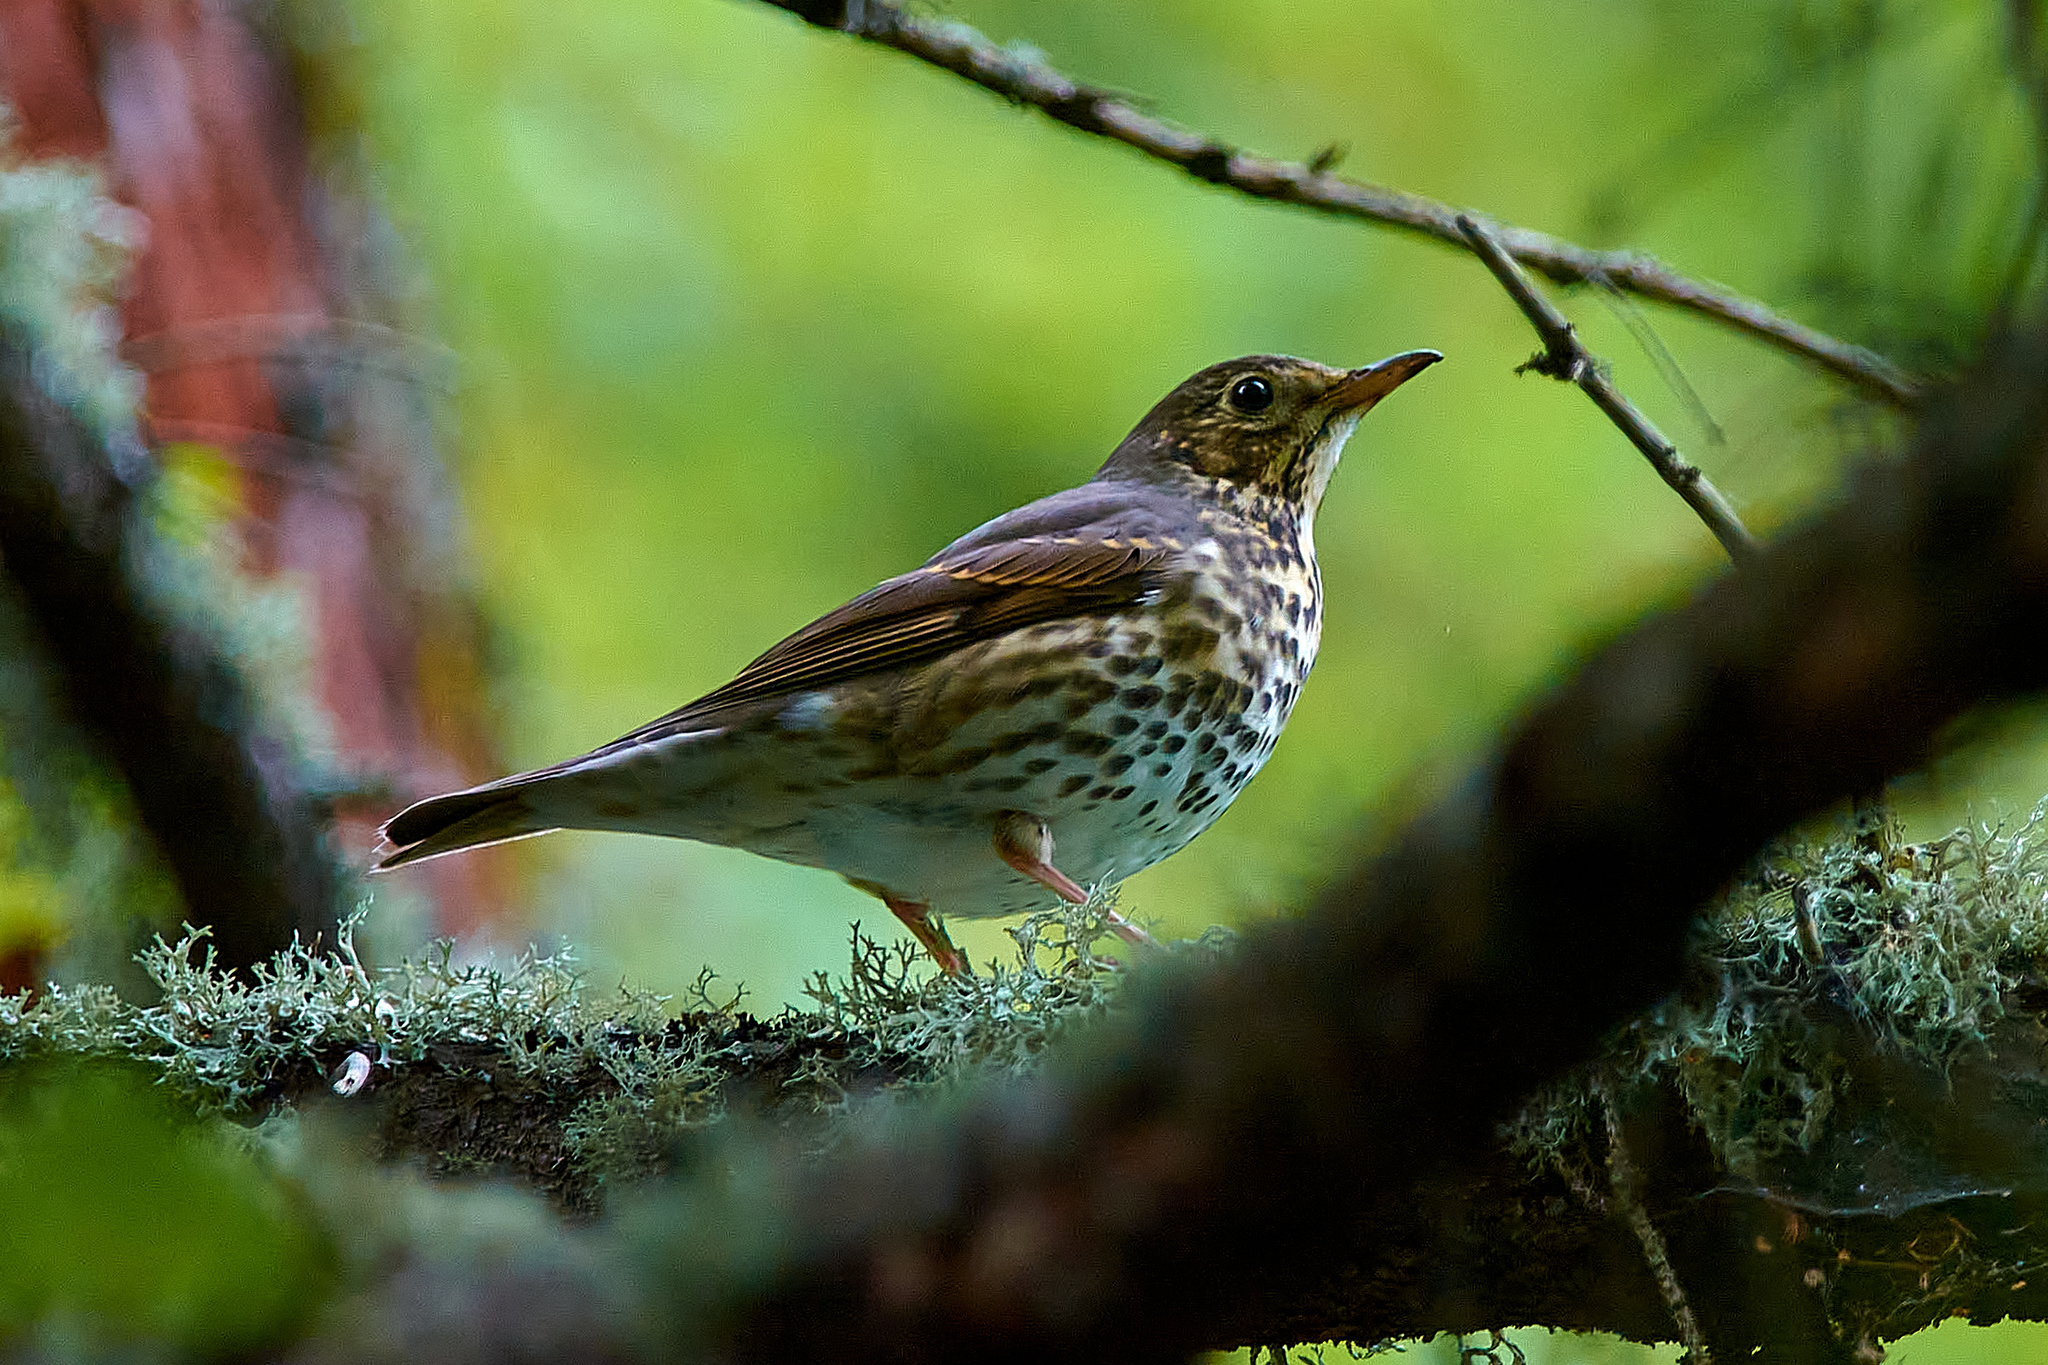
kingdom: Animalia
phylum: Chordata
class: Aves
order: Passeriformes
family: Turdidae
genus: Turdus
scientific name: Turdus philomelos
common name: Song thrush
